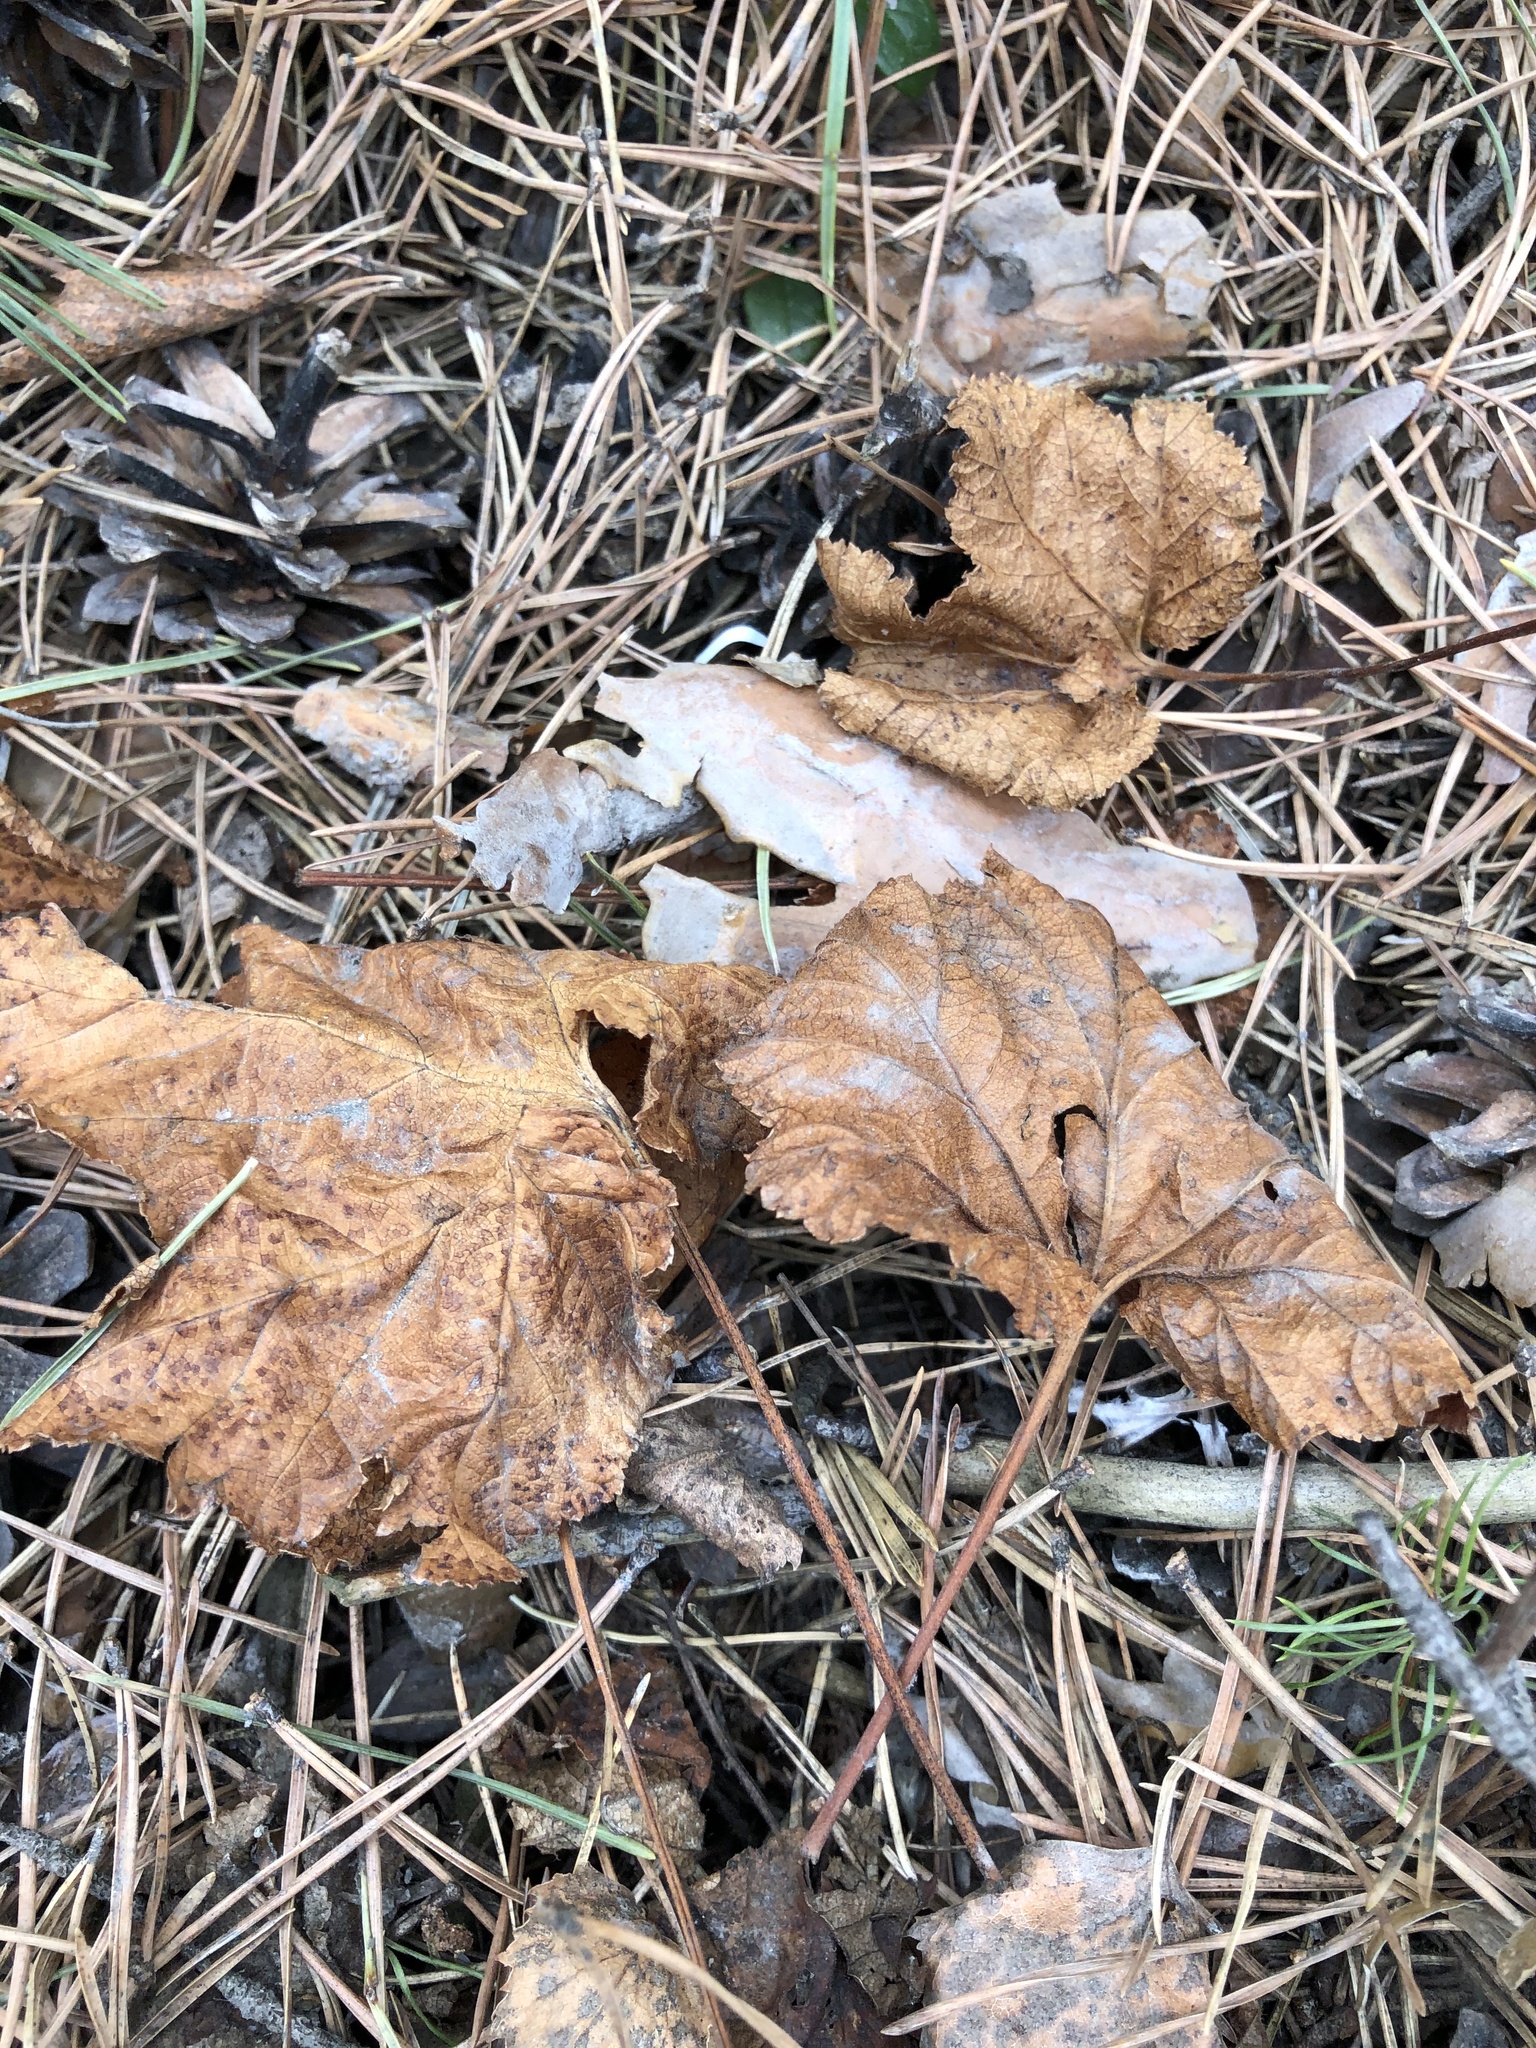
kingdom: Plantae
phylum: Tracheophyta
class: Magnoliopsida
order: Rosales
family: Rosaceae
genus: Rubus
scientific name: Rubus chamaemorus
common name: Cloudberry
